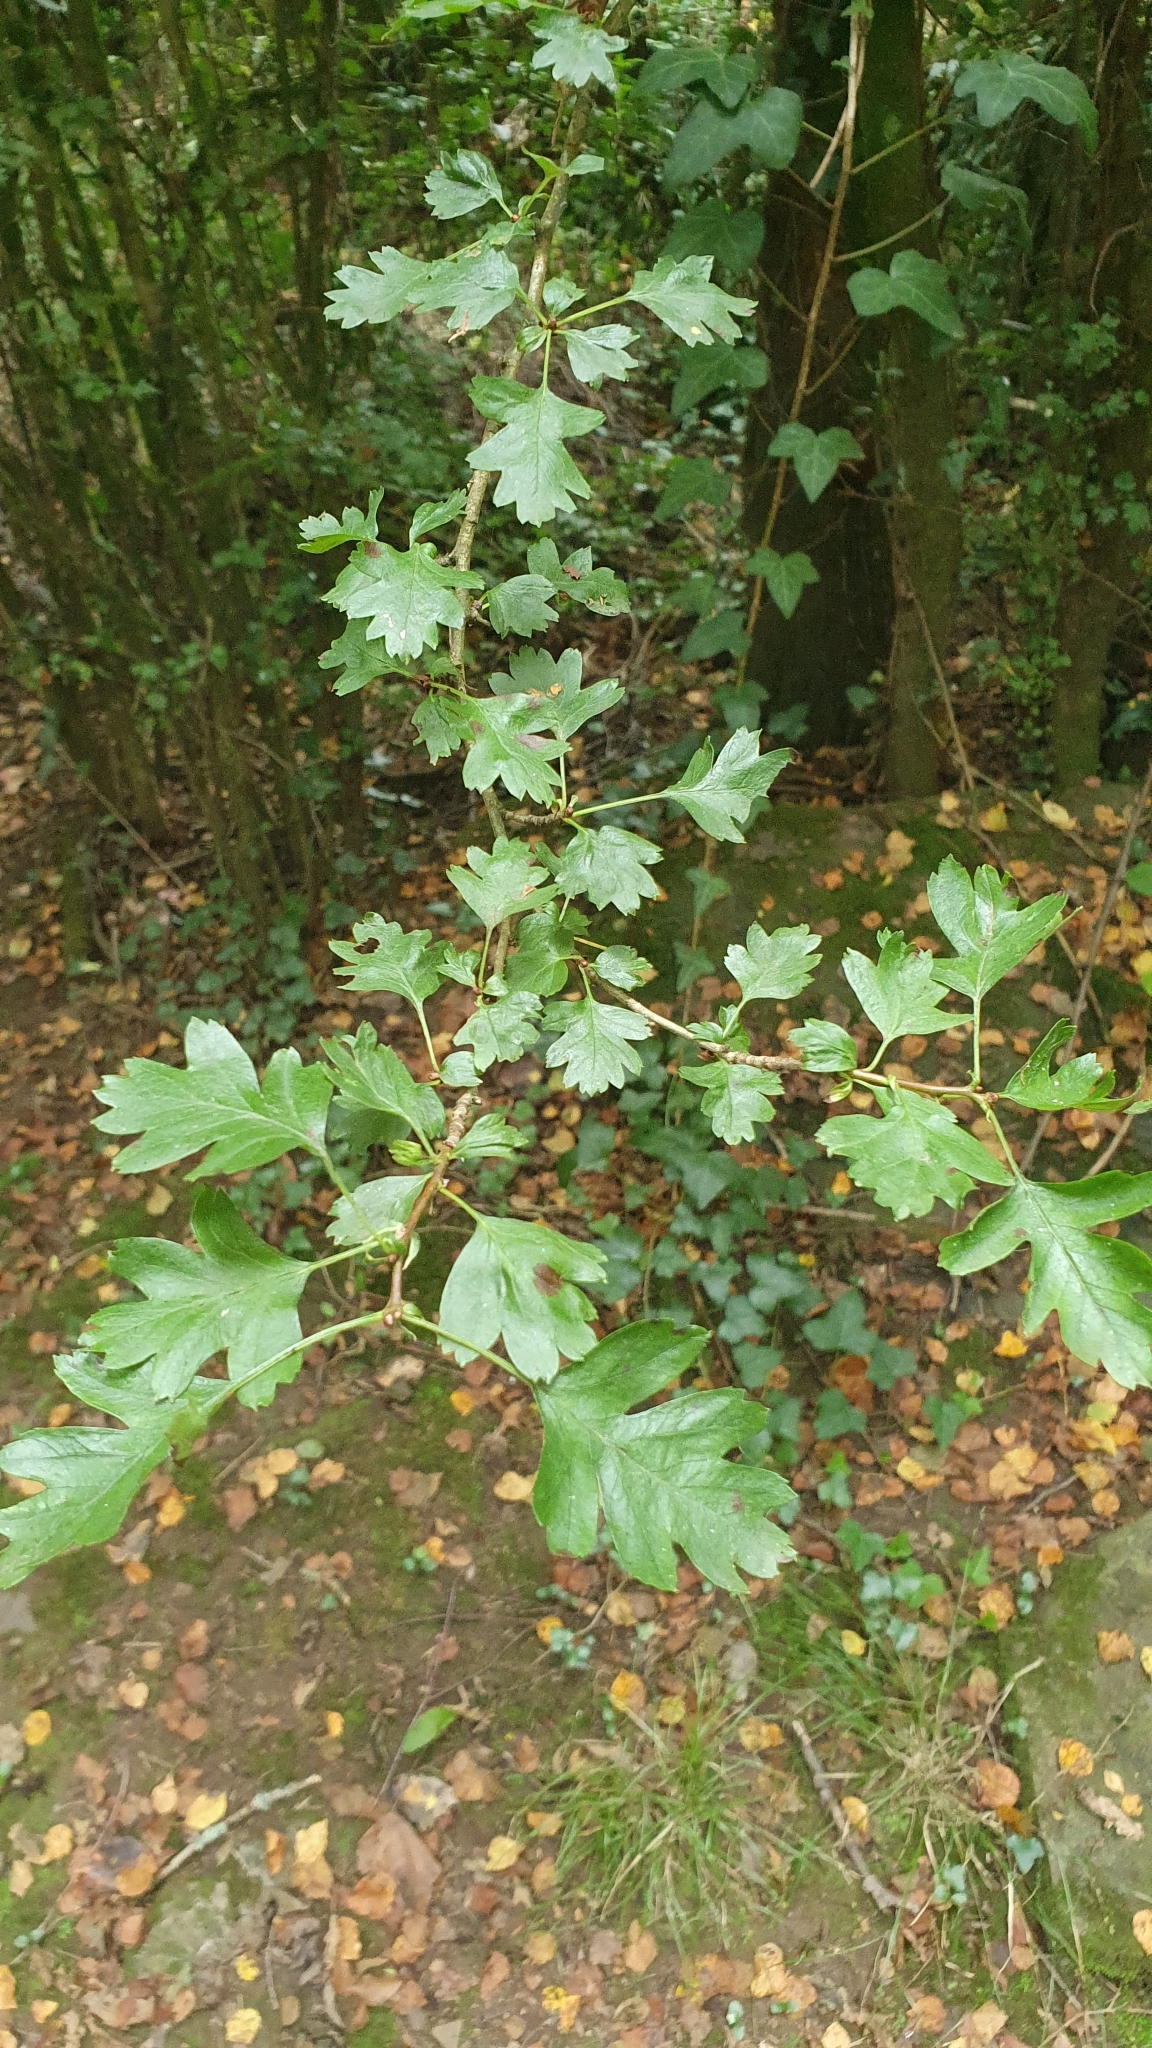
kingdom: Plantae
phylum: Tracheophyta
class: Magnoliopsida
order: Rosales
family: Rosaceae
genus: Crataegus
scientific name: Crataegus monogyna
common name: Hawthorn
